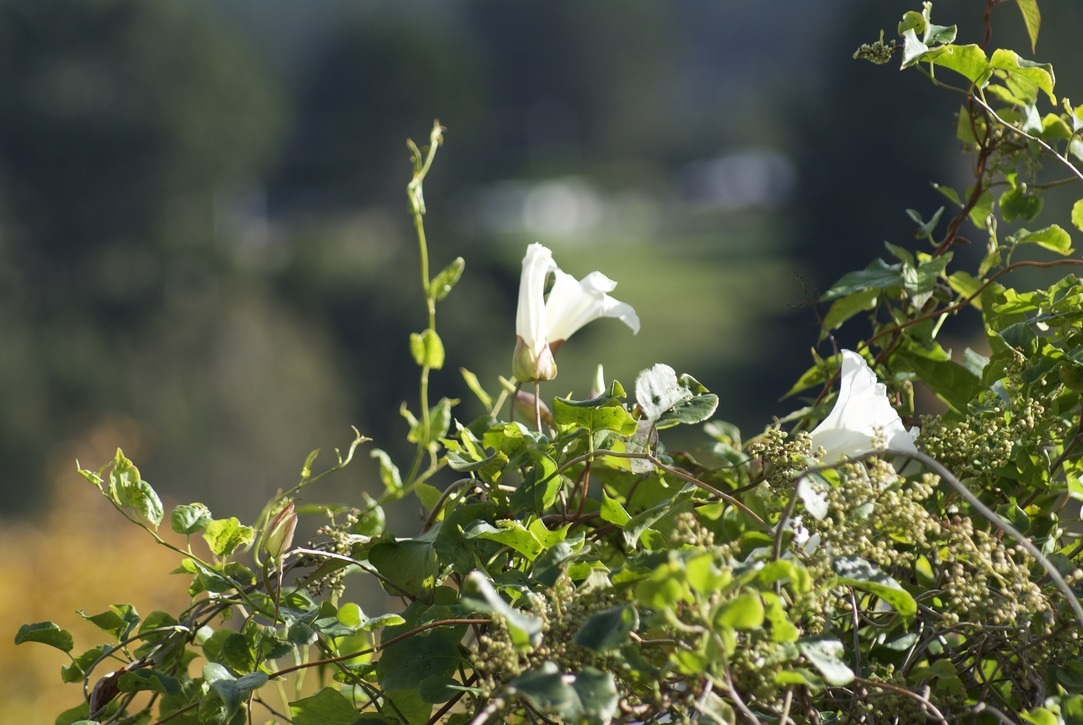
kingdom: Plantae
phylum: Tracheophyta
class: Magnoliopsida
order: Solanales
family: Convolvulaceae
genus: Calystegia
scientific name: Calystegia silvatica
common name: Large bindweed
